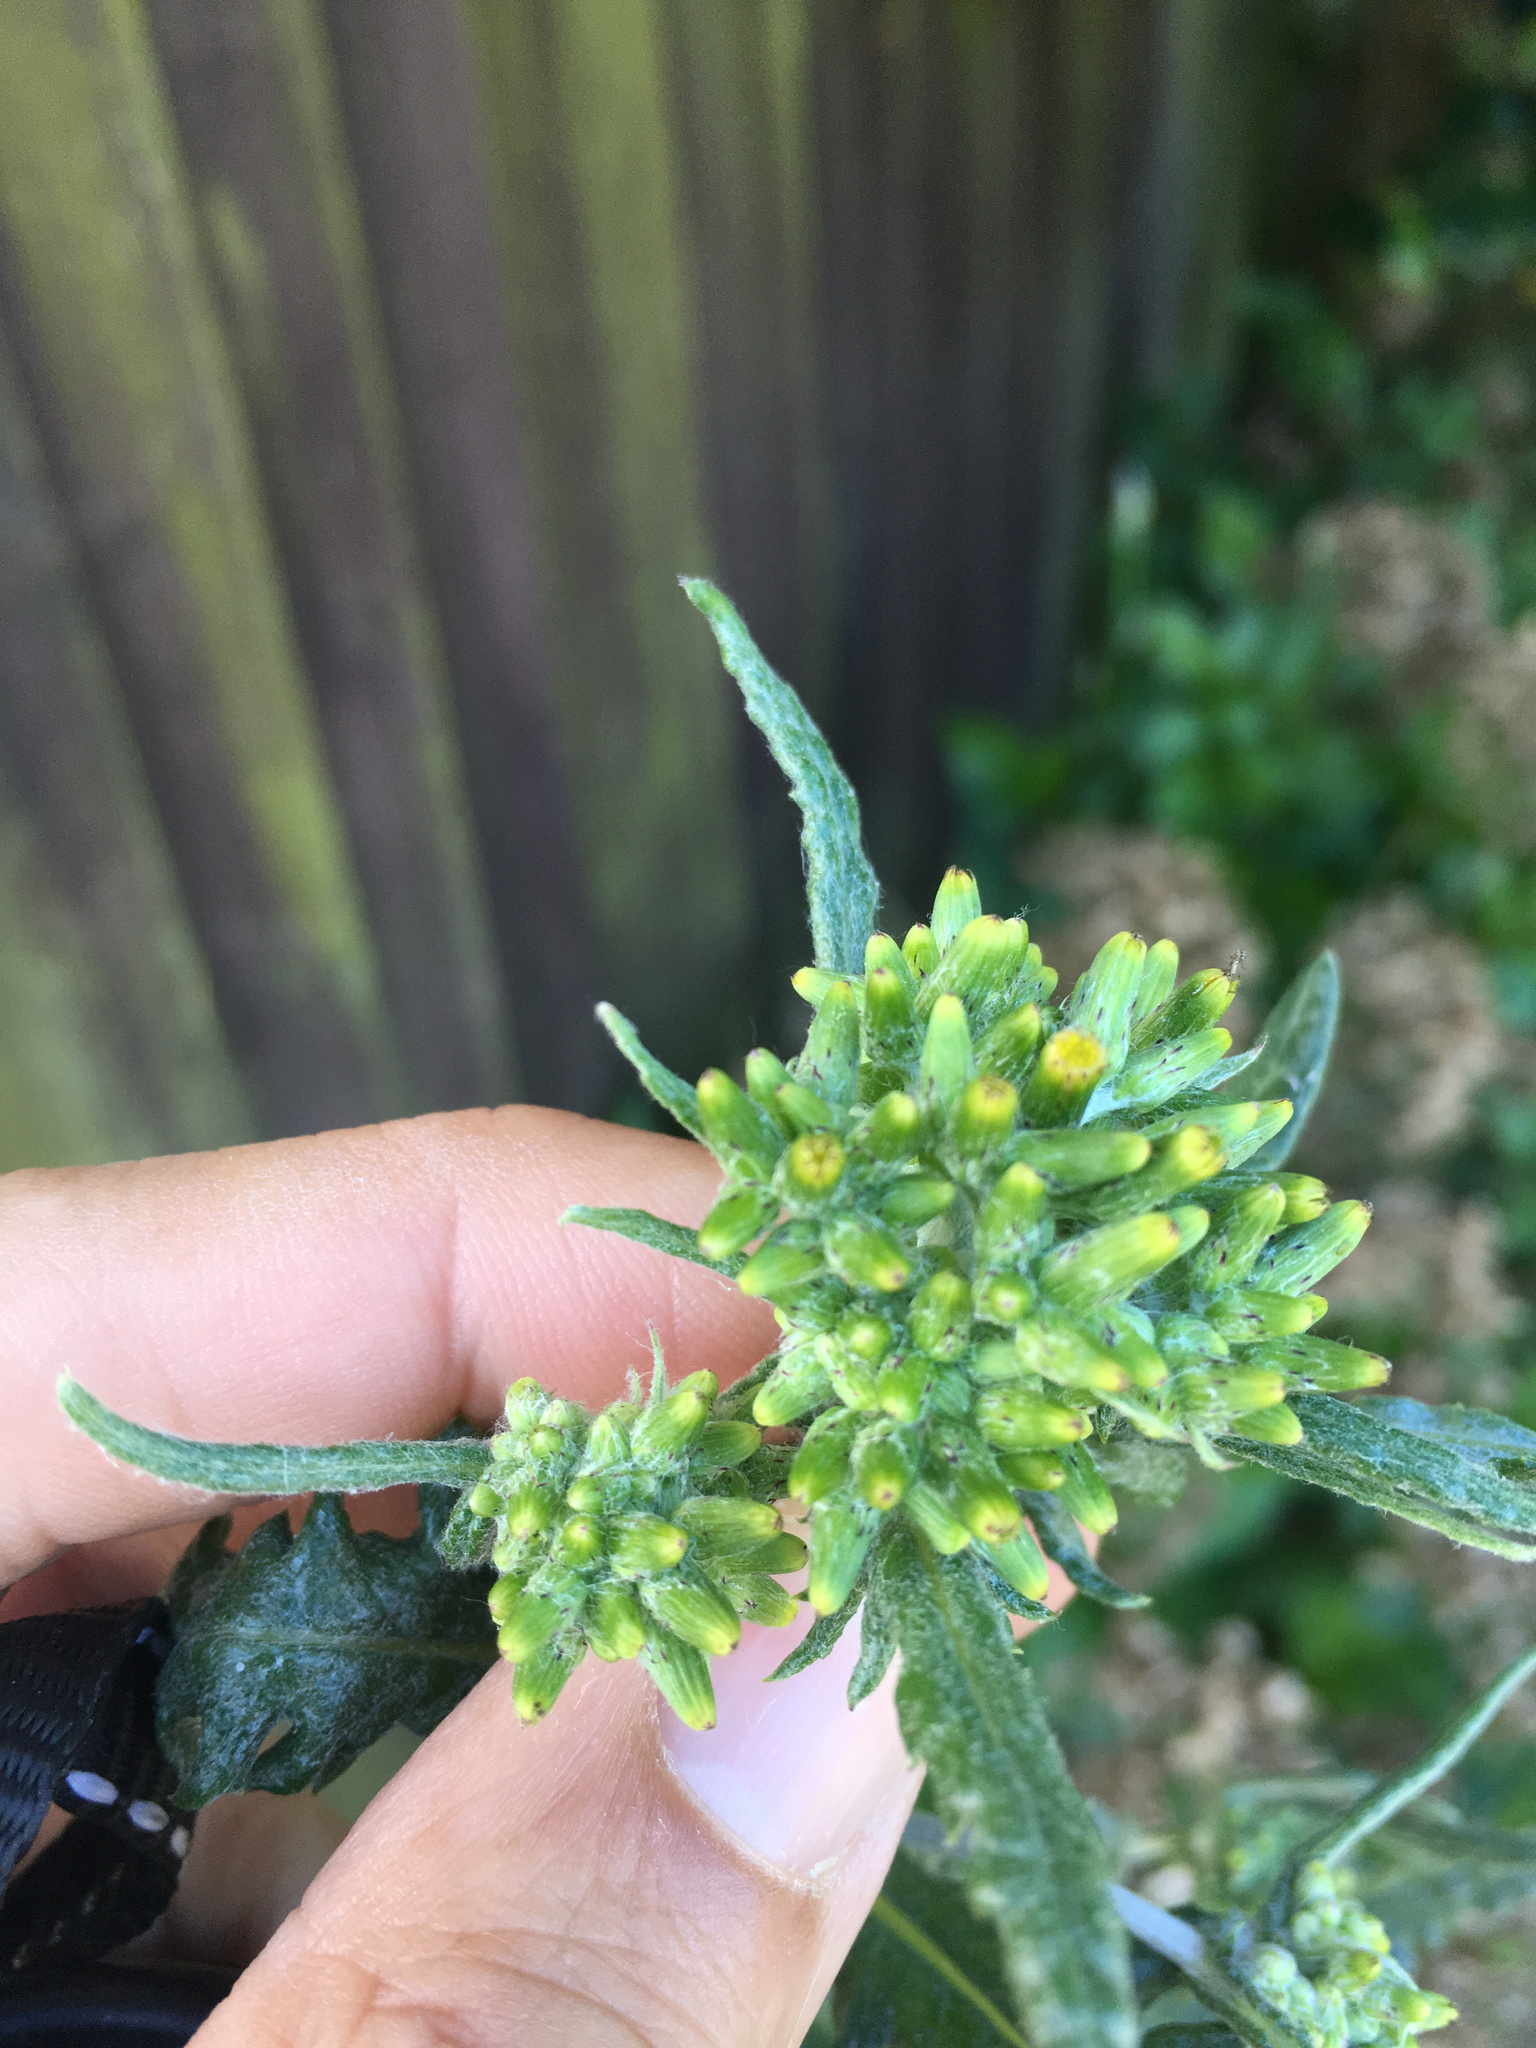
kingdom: Plantae
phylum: Tracheophyta
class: Magnoliopsida
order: Asterales
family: Asteraceae
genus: Senecio
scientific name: Senecio glomeratus
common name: Cutleaf burnweed
